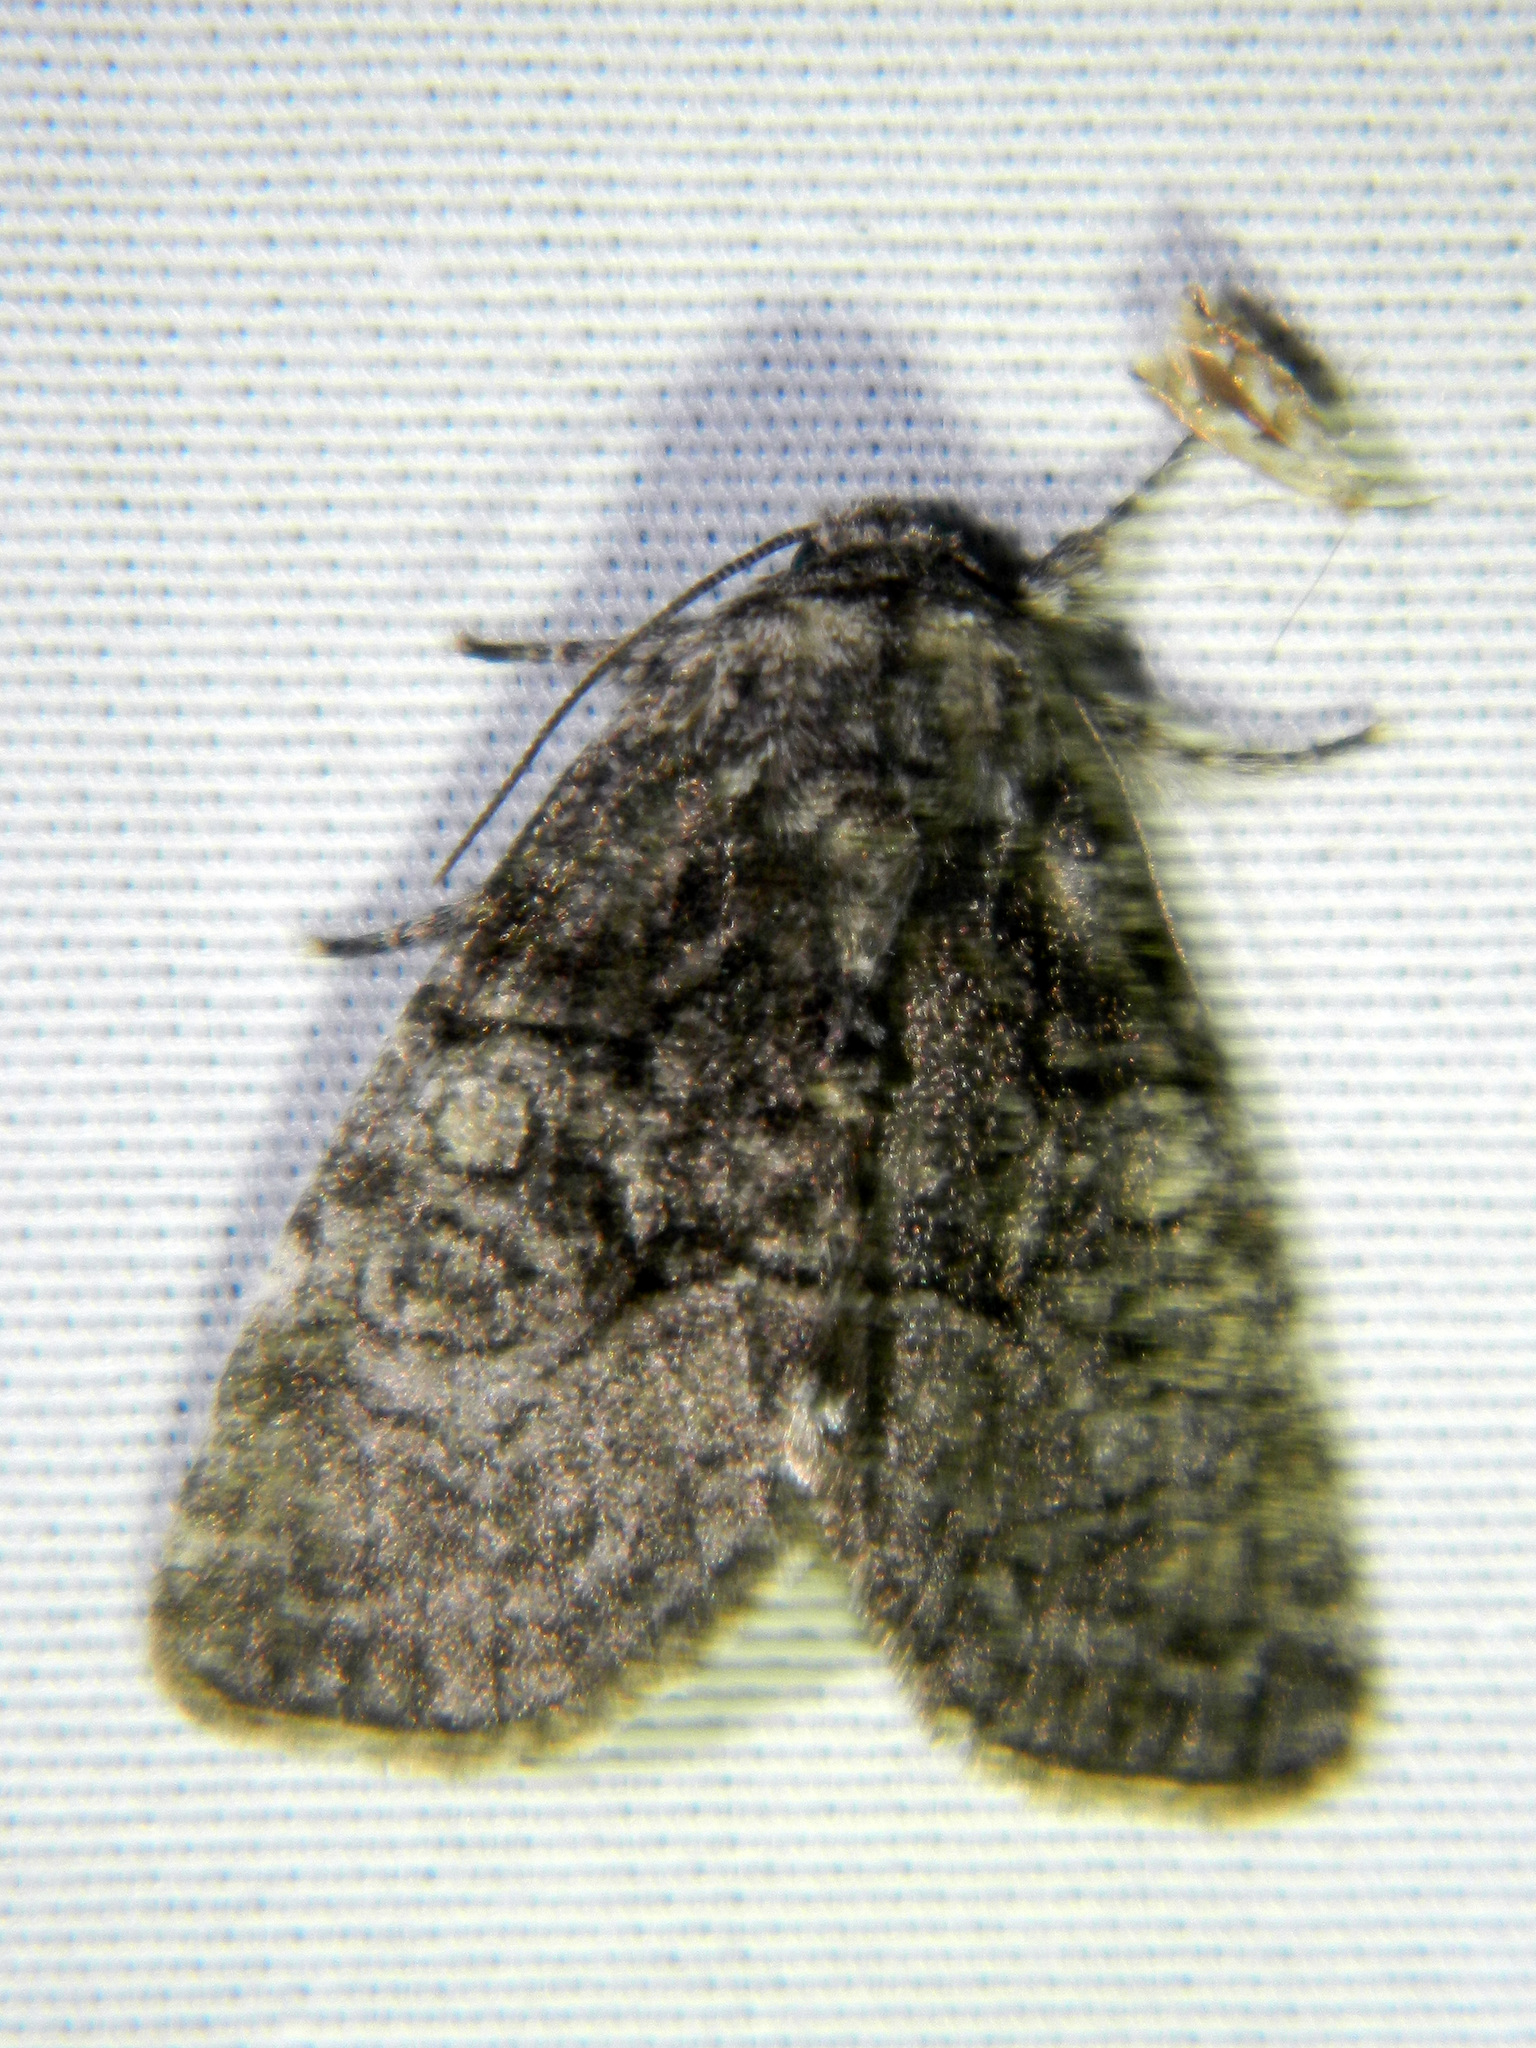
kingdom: Animalia
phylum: Arthropoda
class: Insecta
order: Lepidoptera
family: Noctuidae
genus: Raphia
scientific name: Raphia frater
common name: Brother
